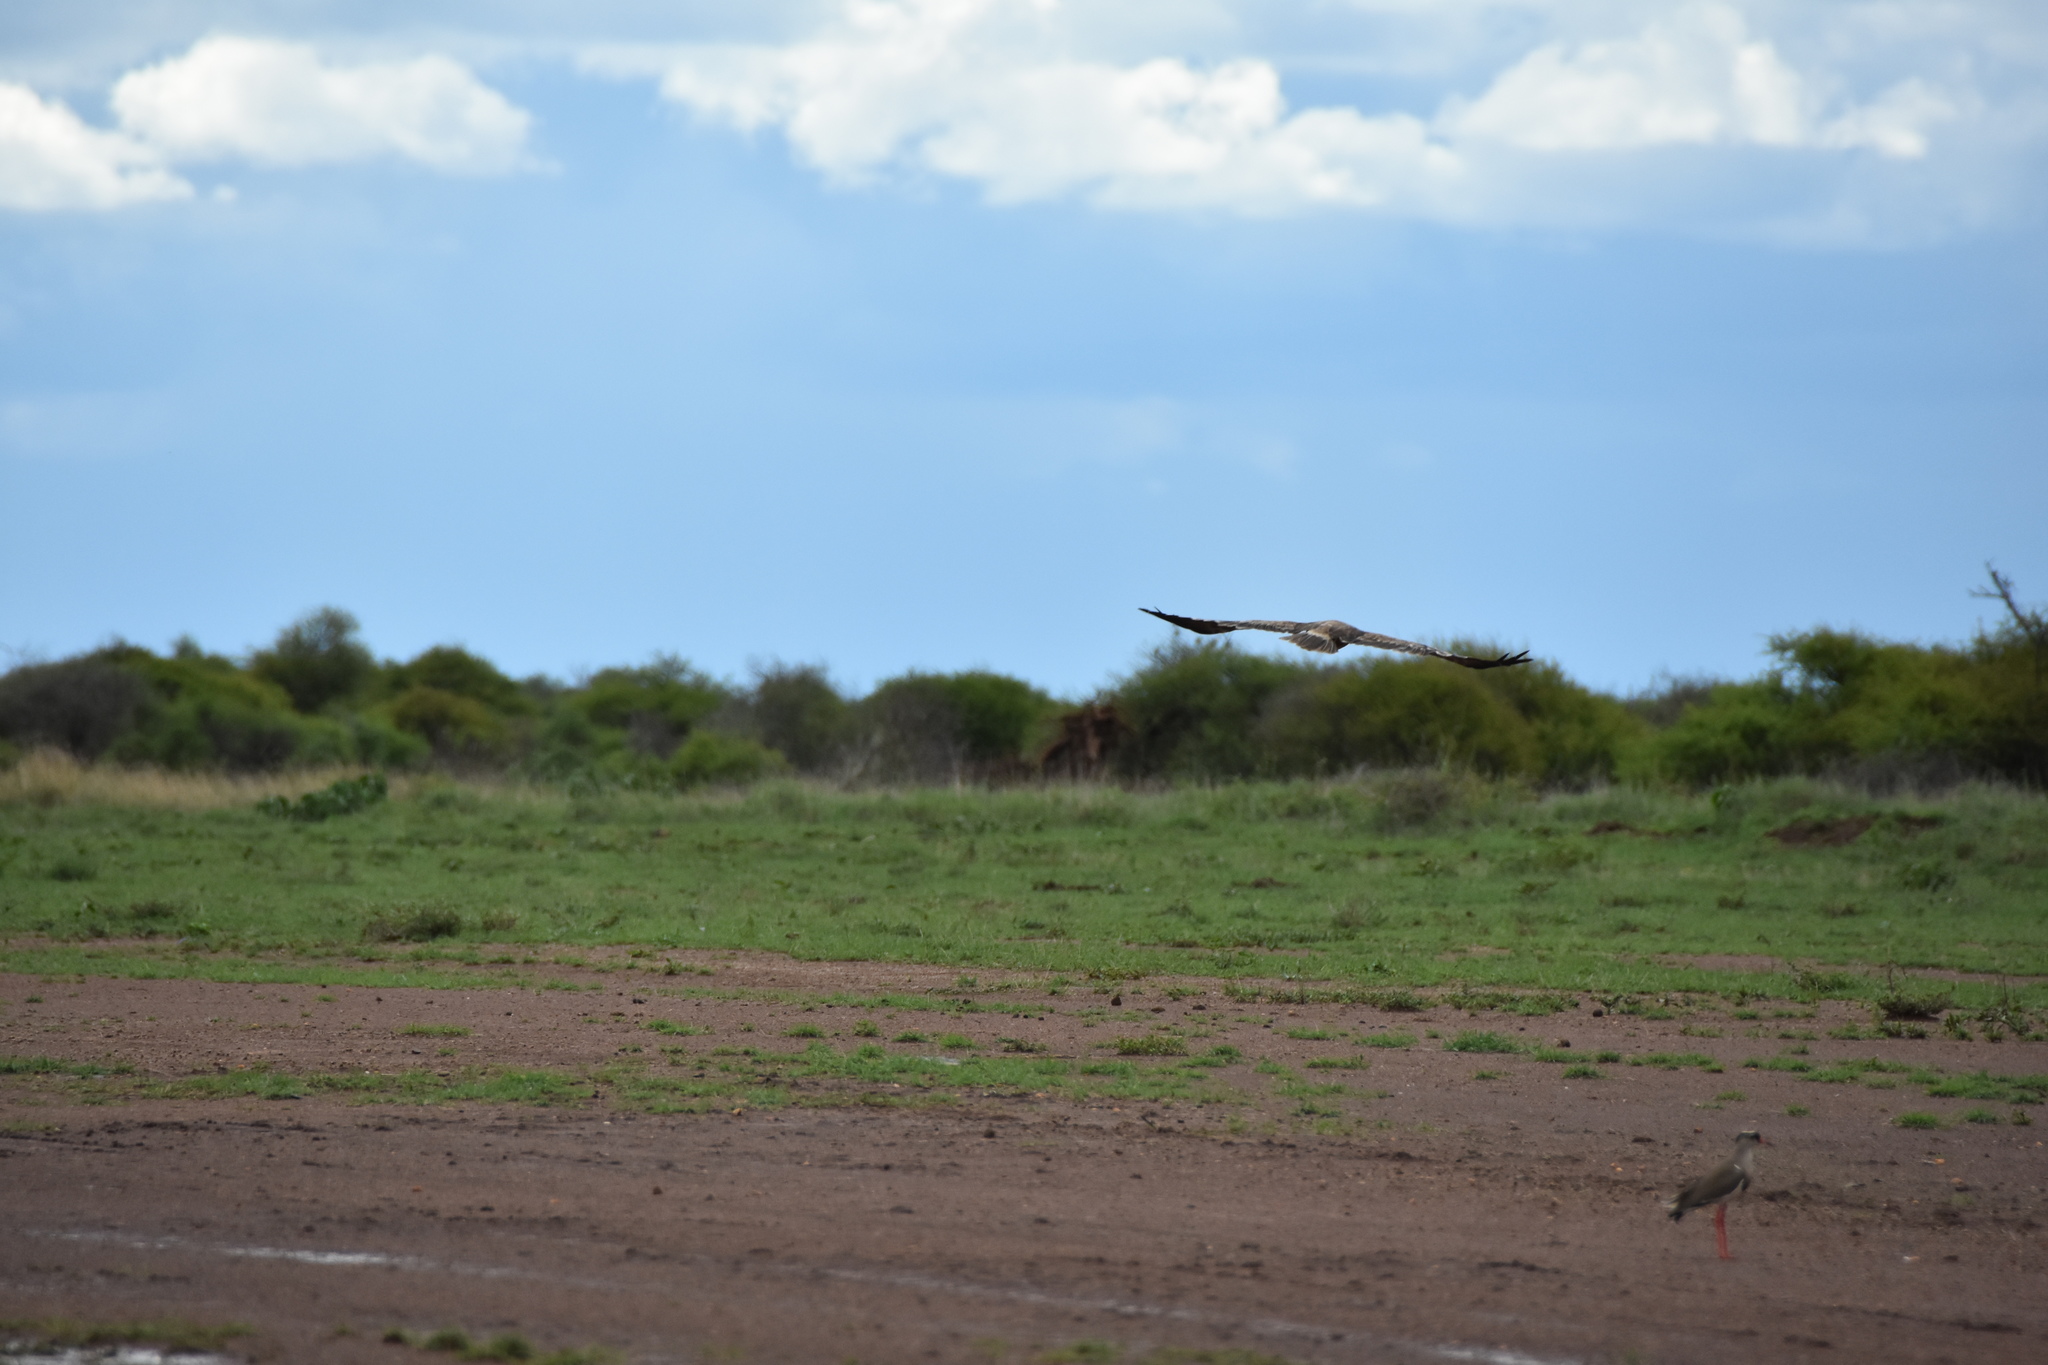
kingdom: Animalia
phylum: Chordata
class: Aves
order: Accipitriformes
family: Accipitridae
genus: Aquila
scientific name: Aquila rapax
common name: Tawny eagle
